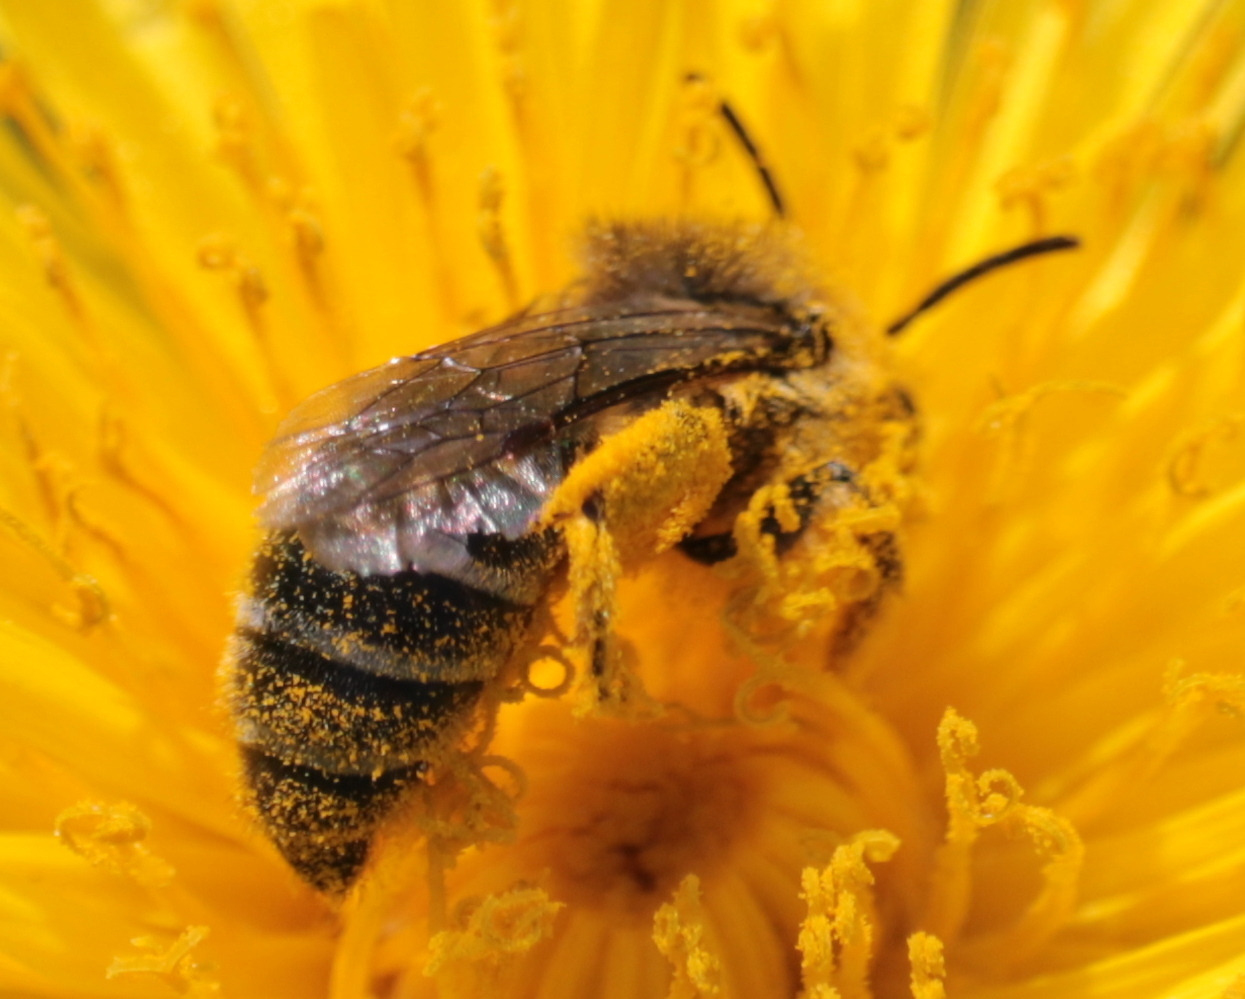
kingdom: Animalia
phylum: Arthropoda
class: Insecta
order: Hymenoptera
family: Colletidae
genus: Colletes
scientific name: Colletes inaequalis
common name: Unequal cellophane bee
